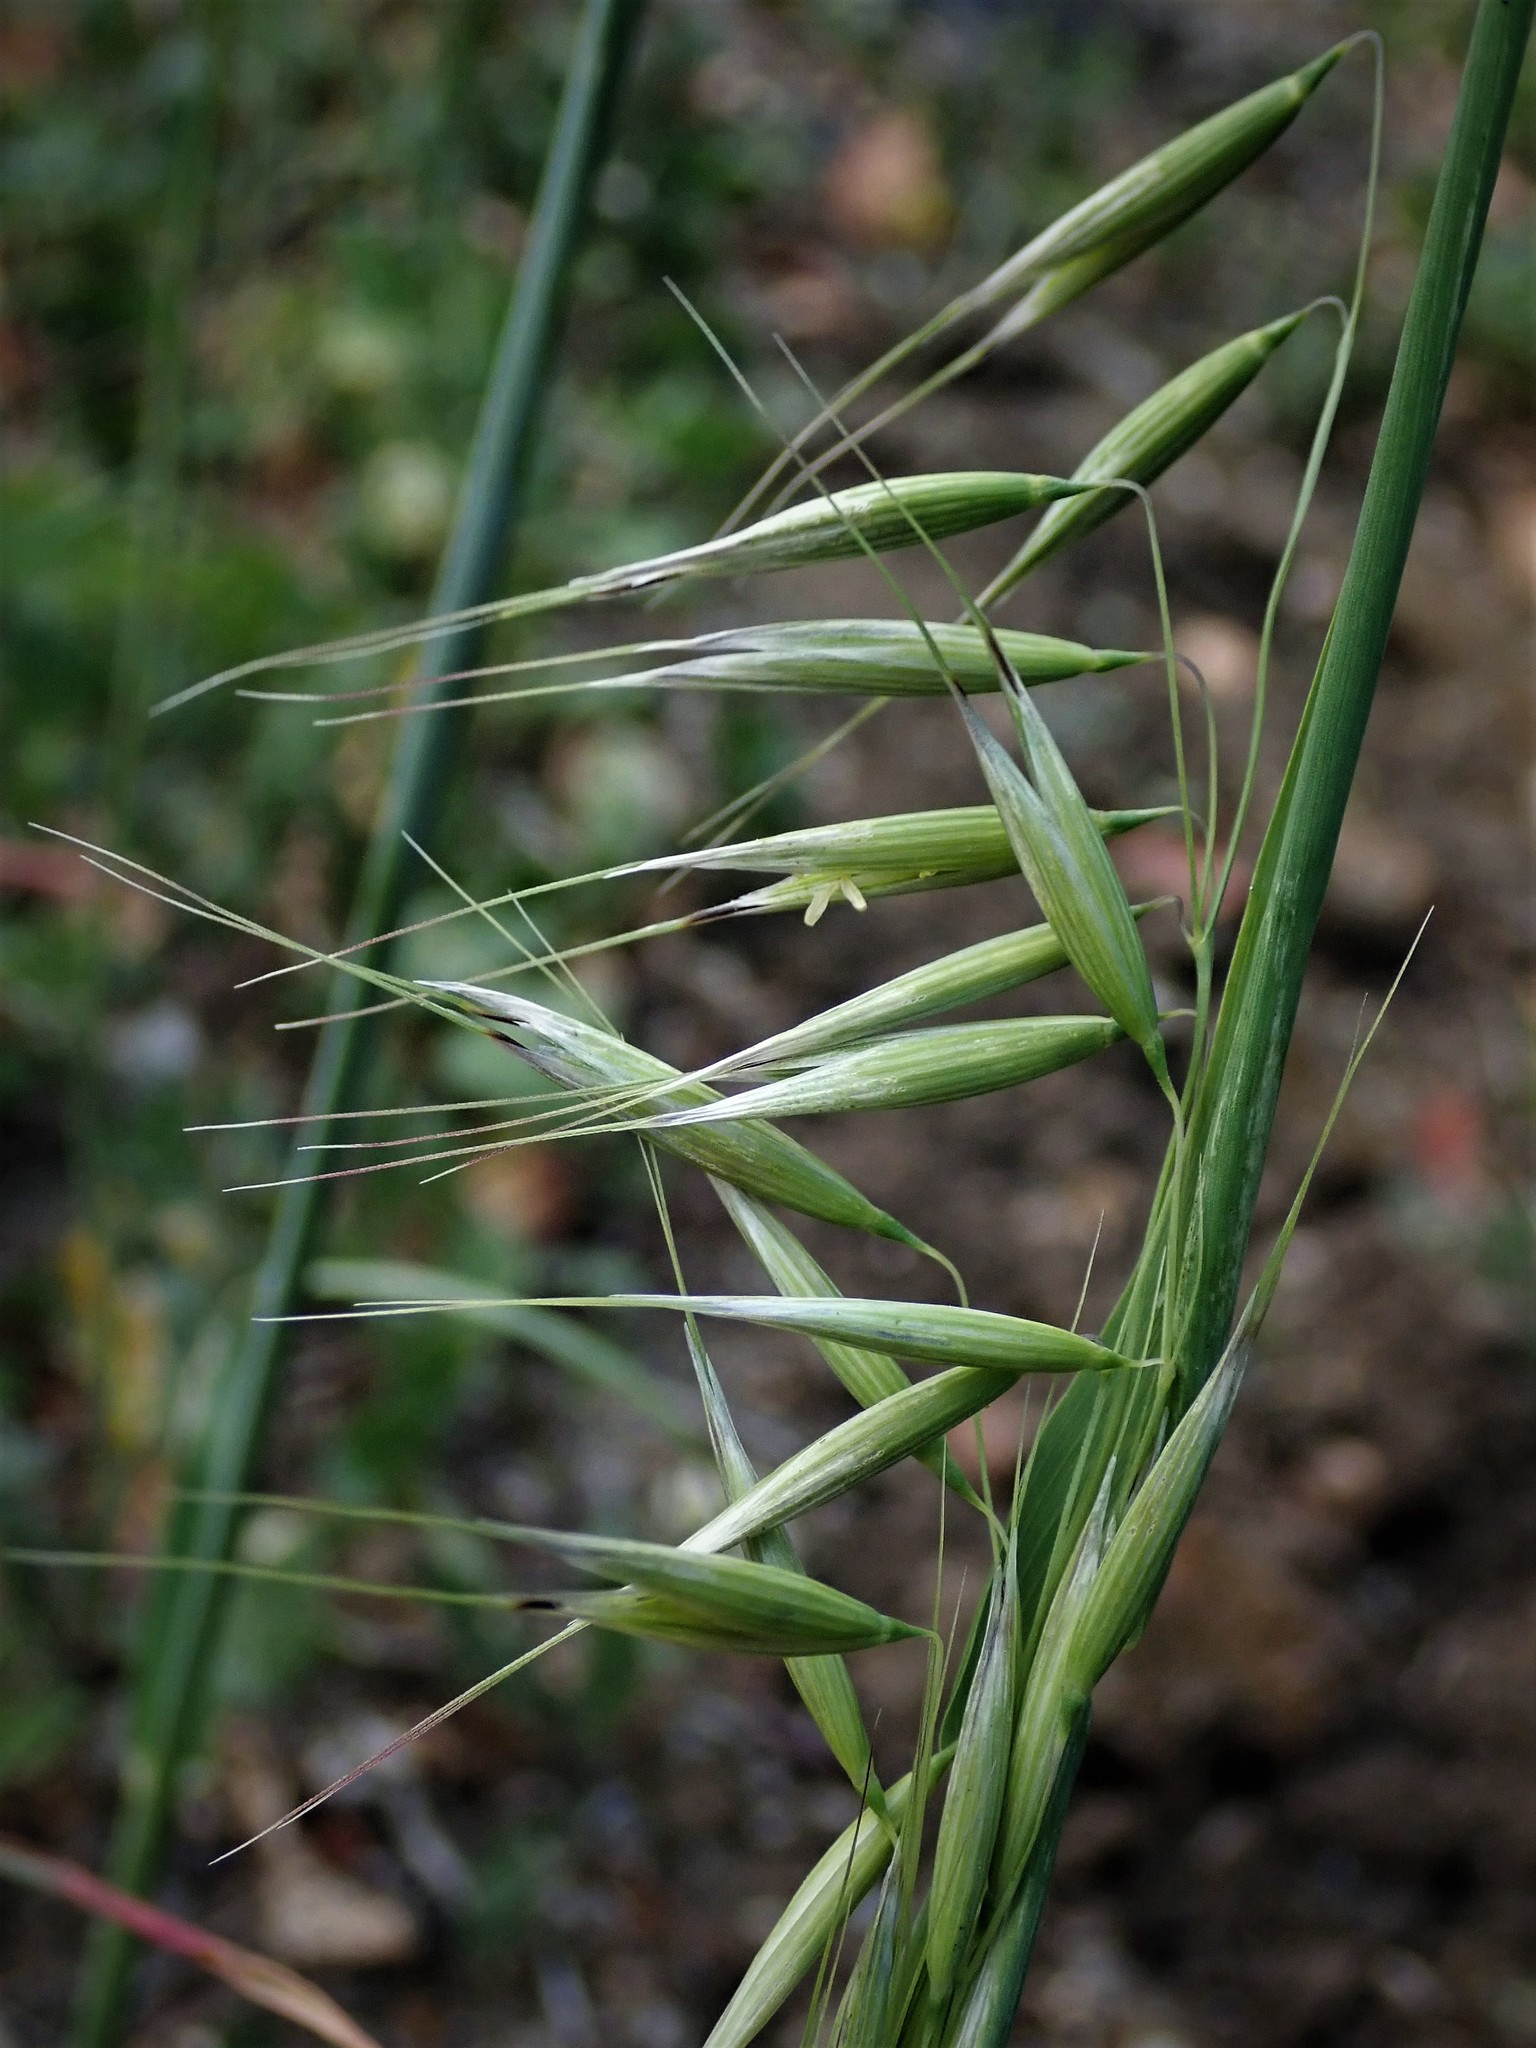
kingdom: Plantae
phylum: Tracheophyta
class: Liliopsida
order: Poales
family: Poaceae
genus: Avena
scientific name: Avena fatua
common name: Wild oat
